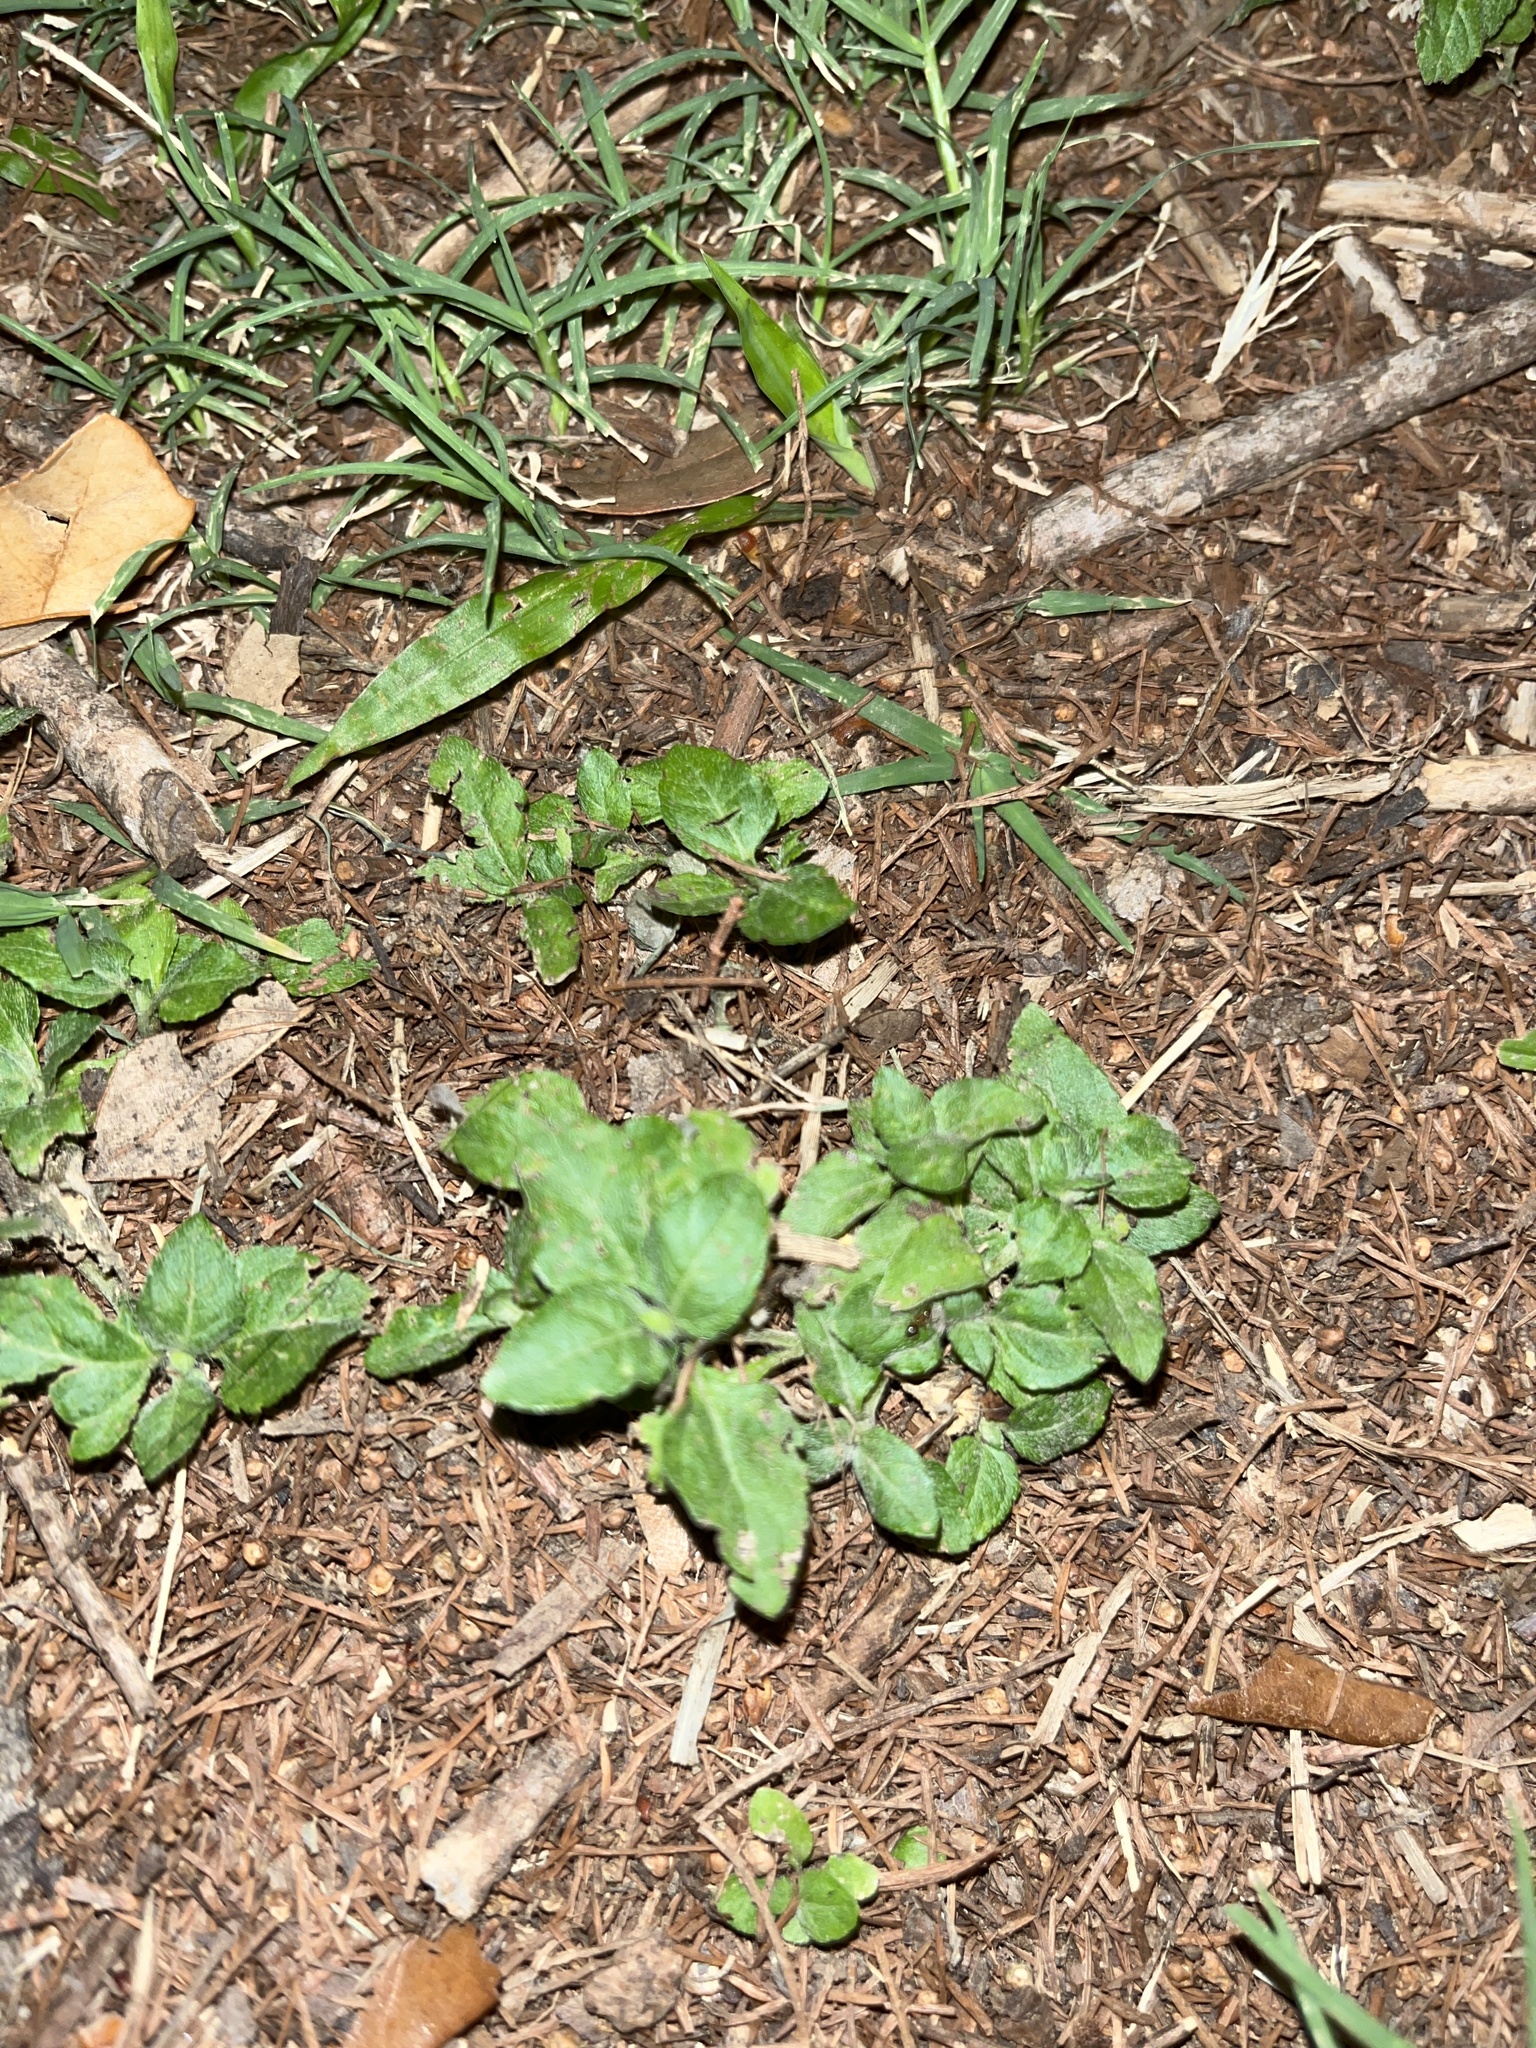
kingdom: Plantae
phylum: Tracheophyta
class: Magnoliopsida
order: Asterales
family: Asteraceae
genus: Calyptocarpus
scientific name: Calyptocarpus vialis
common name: Straggler daisy
